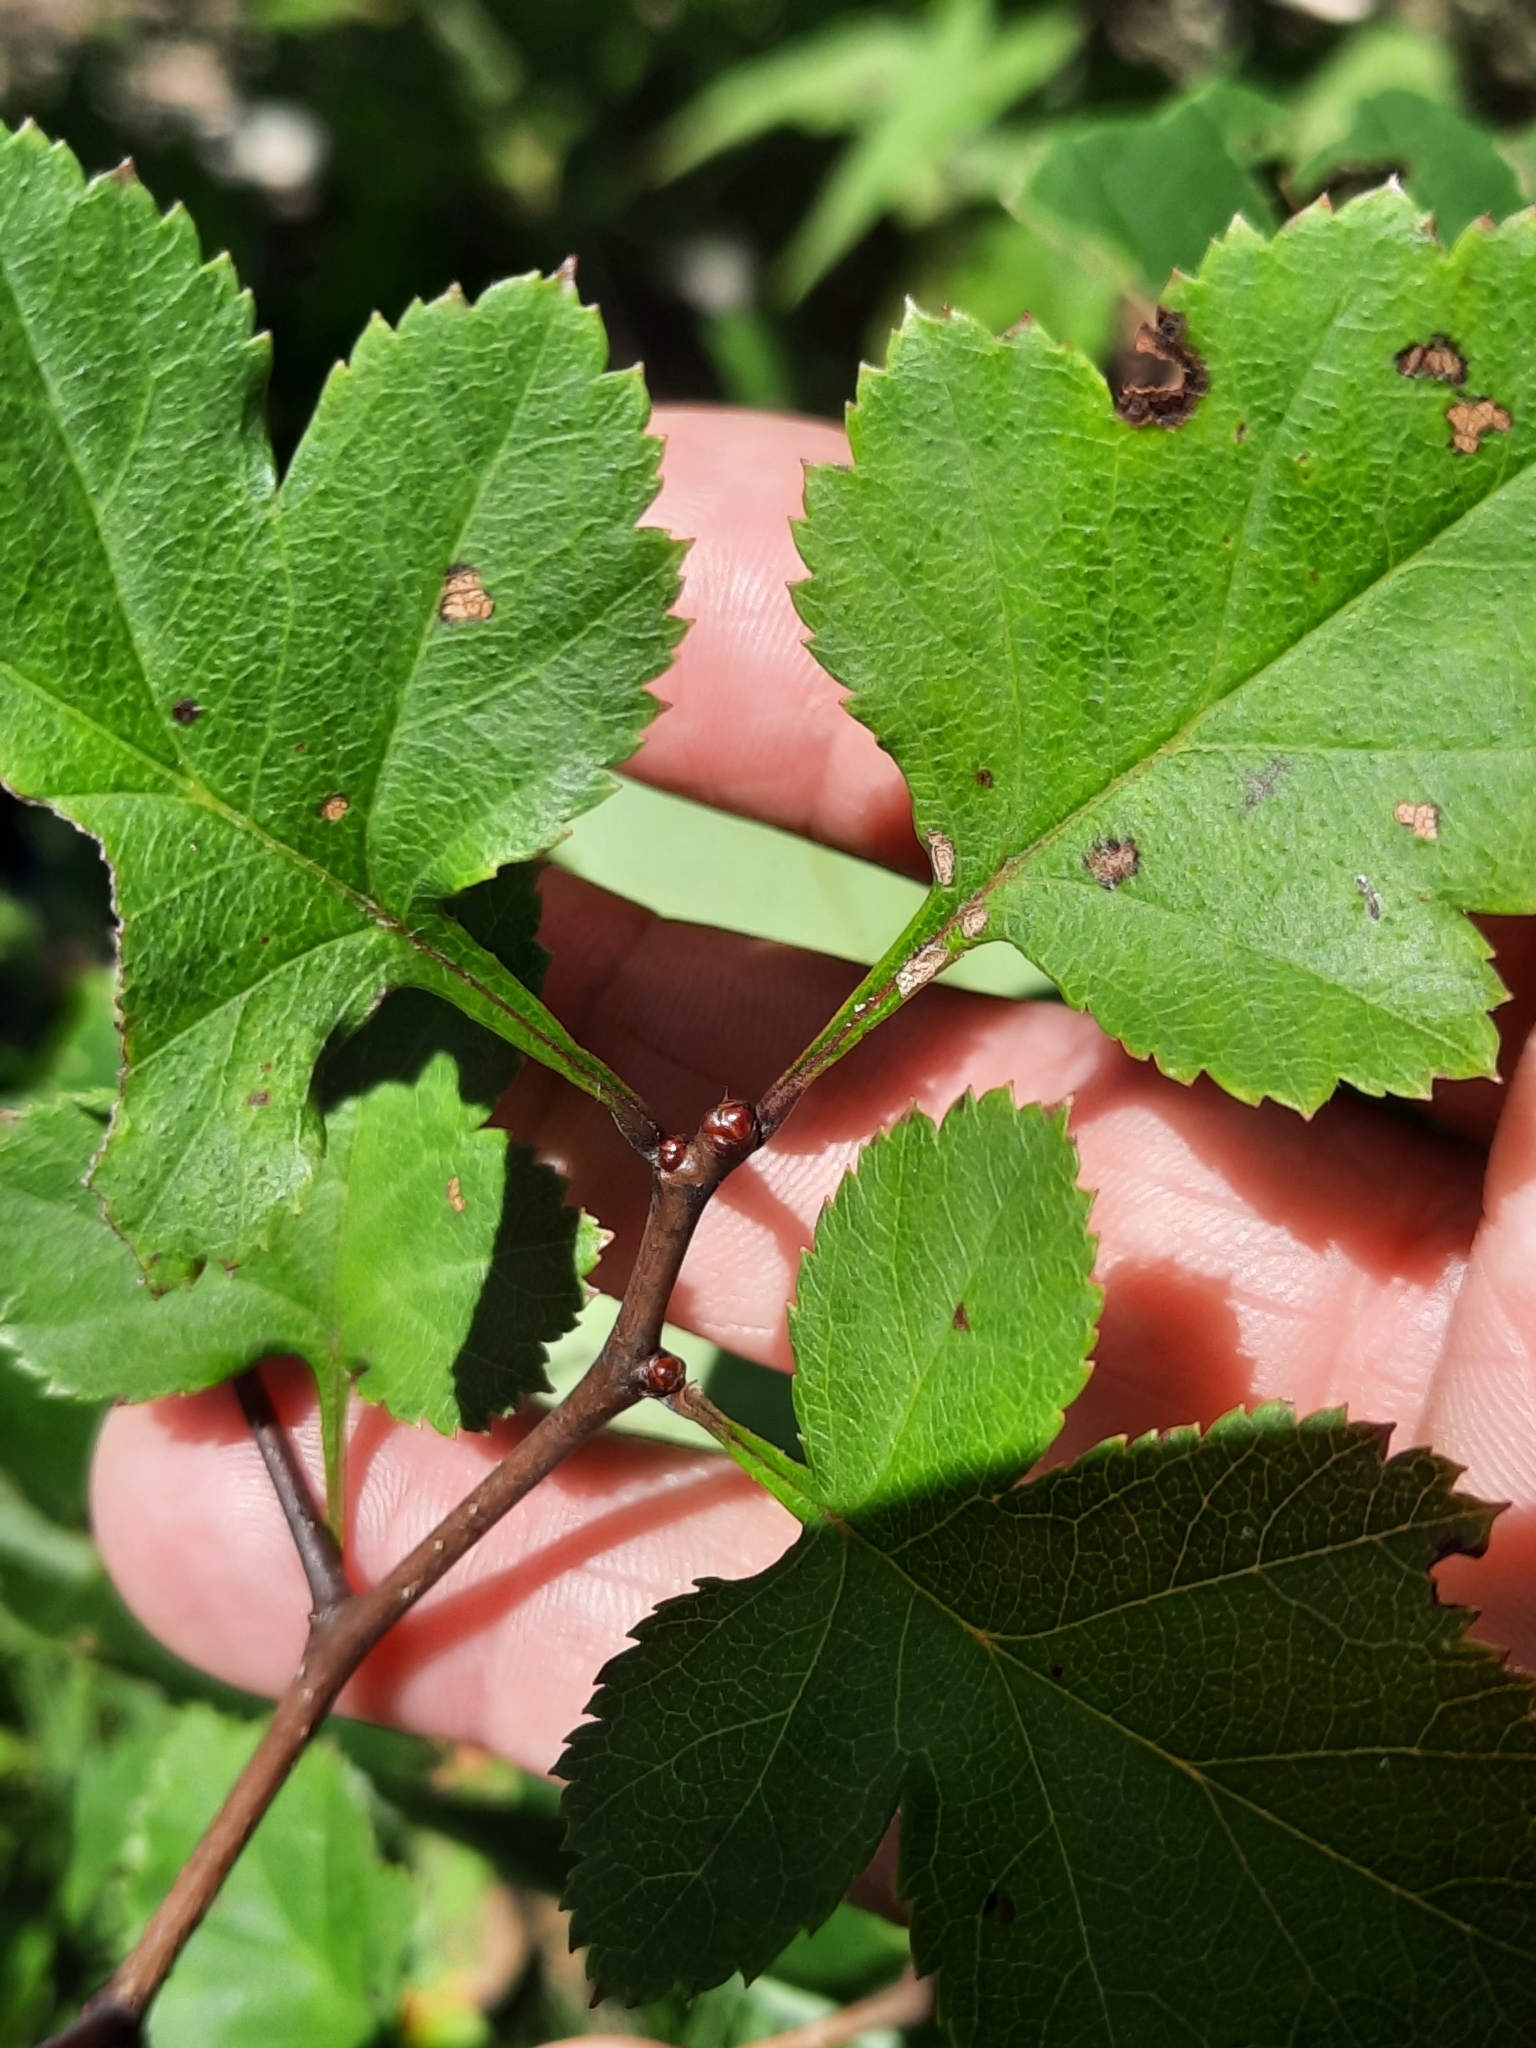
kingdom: Plantae
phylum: Tracheophyta
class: Magnoliopsida
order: Rosales
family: Rosaceae
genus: Crataegus
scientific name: Crataegus
